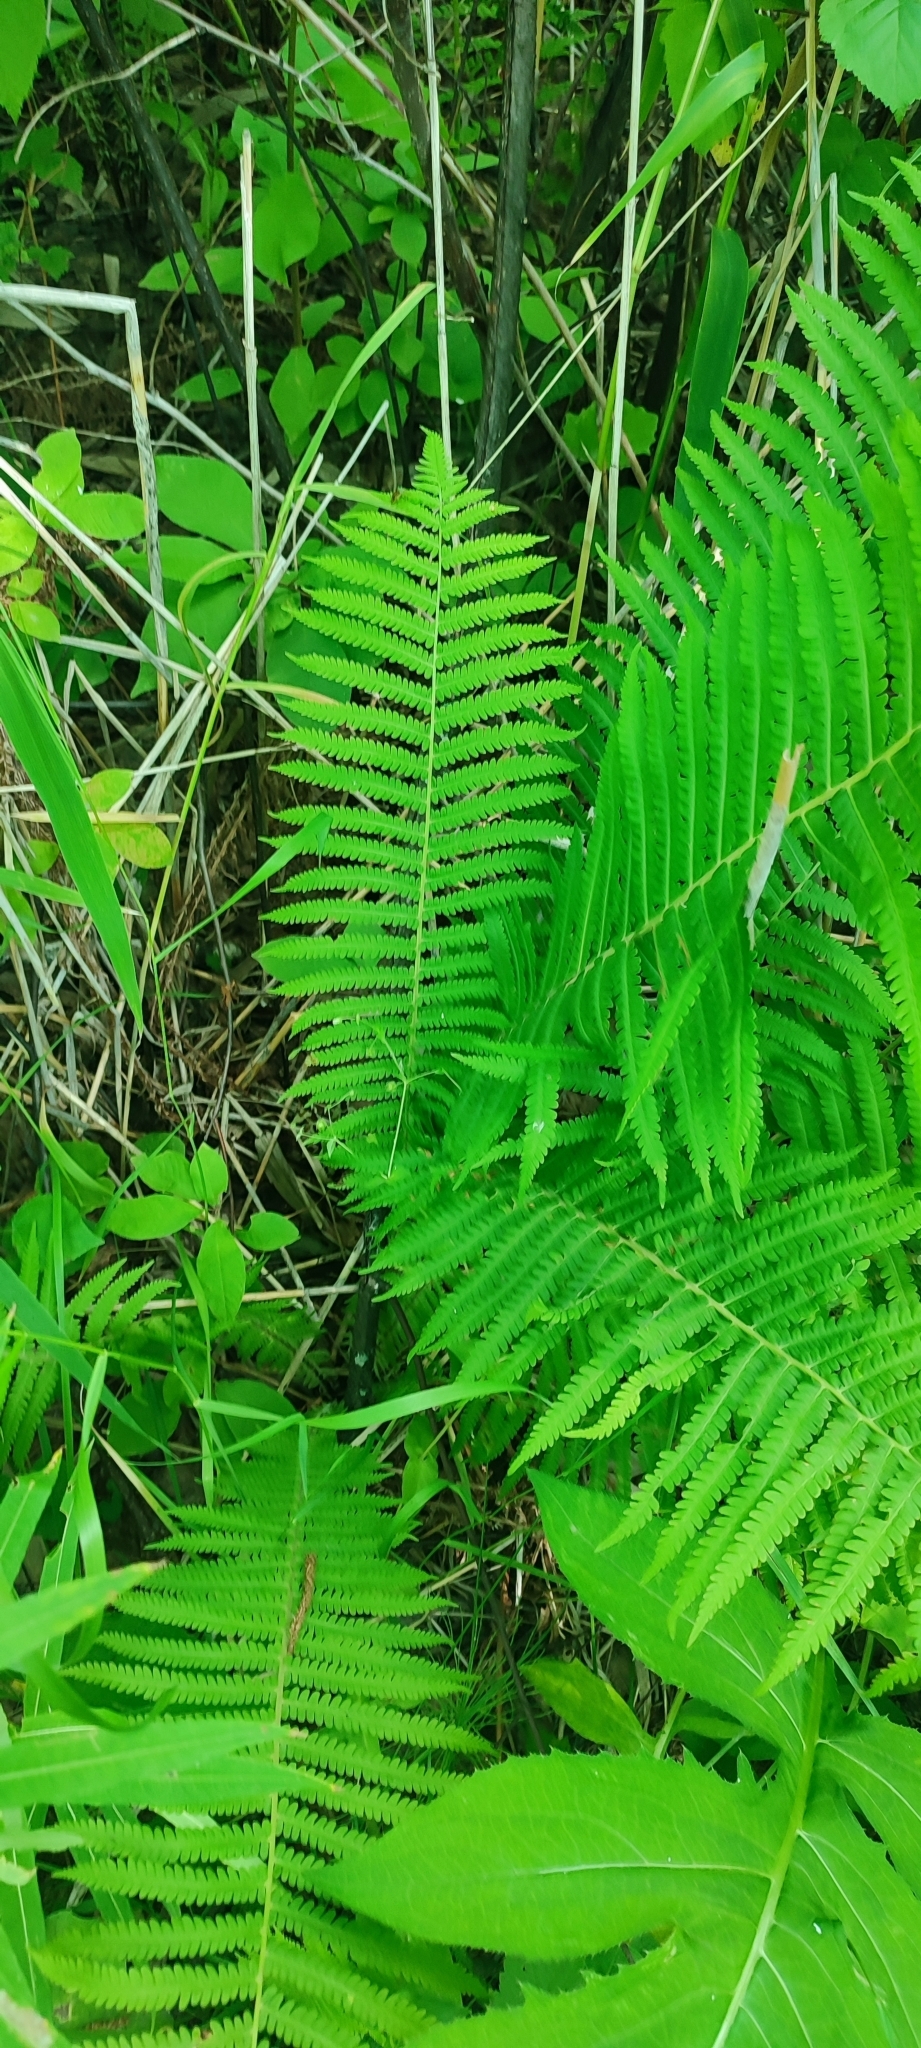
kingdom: Plantae
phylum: Tracheophyta
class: Polypodiopsida
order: Polypodiales
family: Onocleaceae
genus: Matteuccia
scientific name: Matteuccia struthiopteris
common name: Ostrich fern
